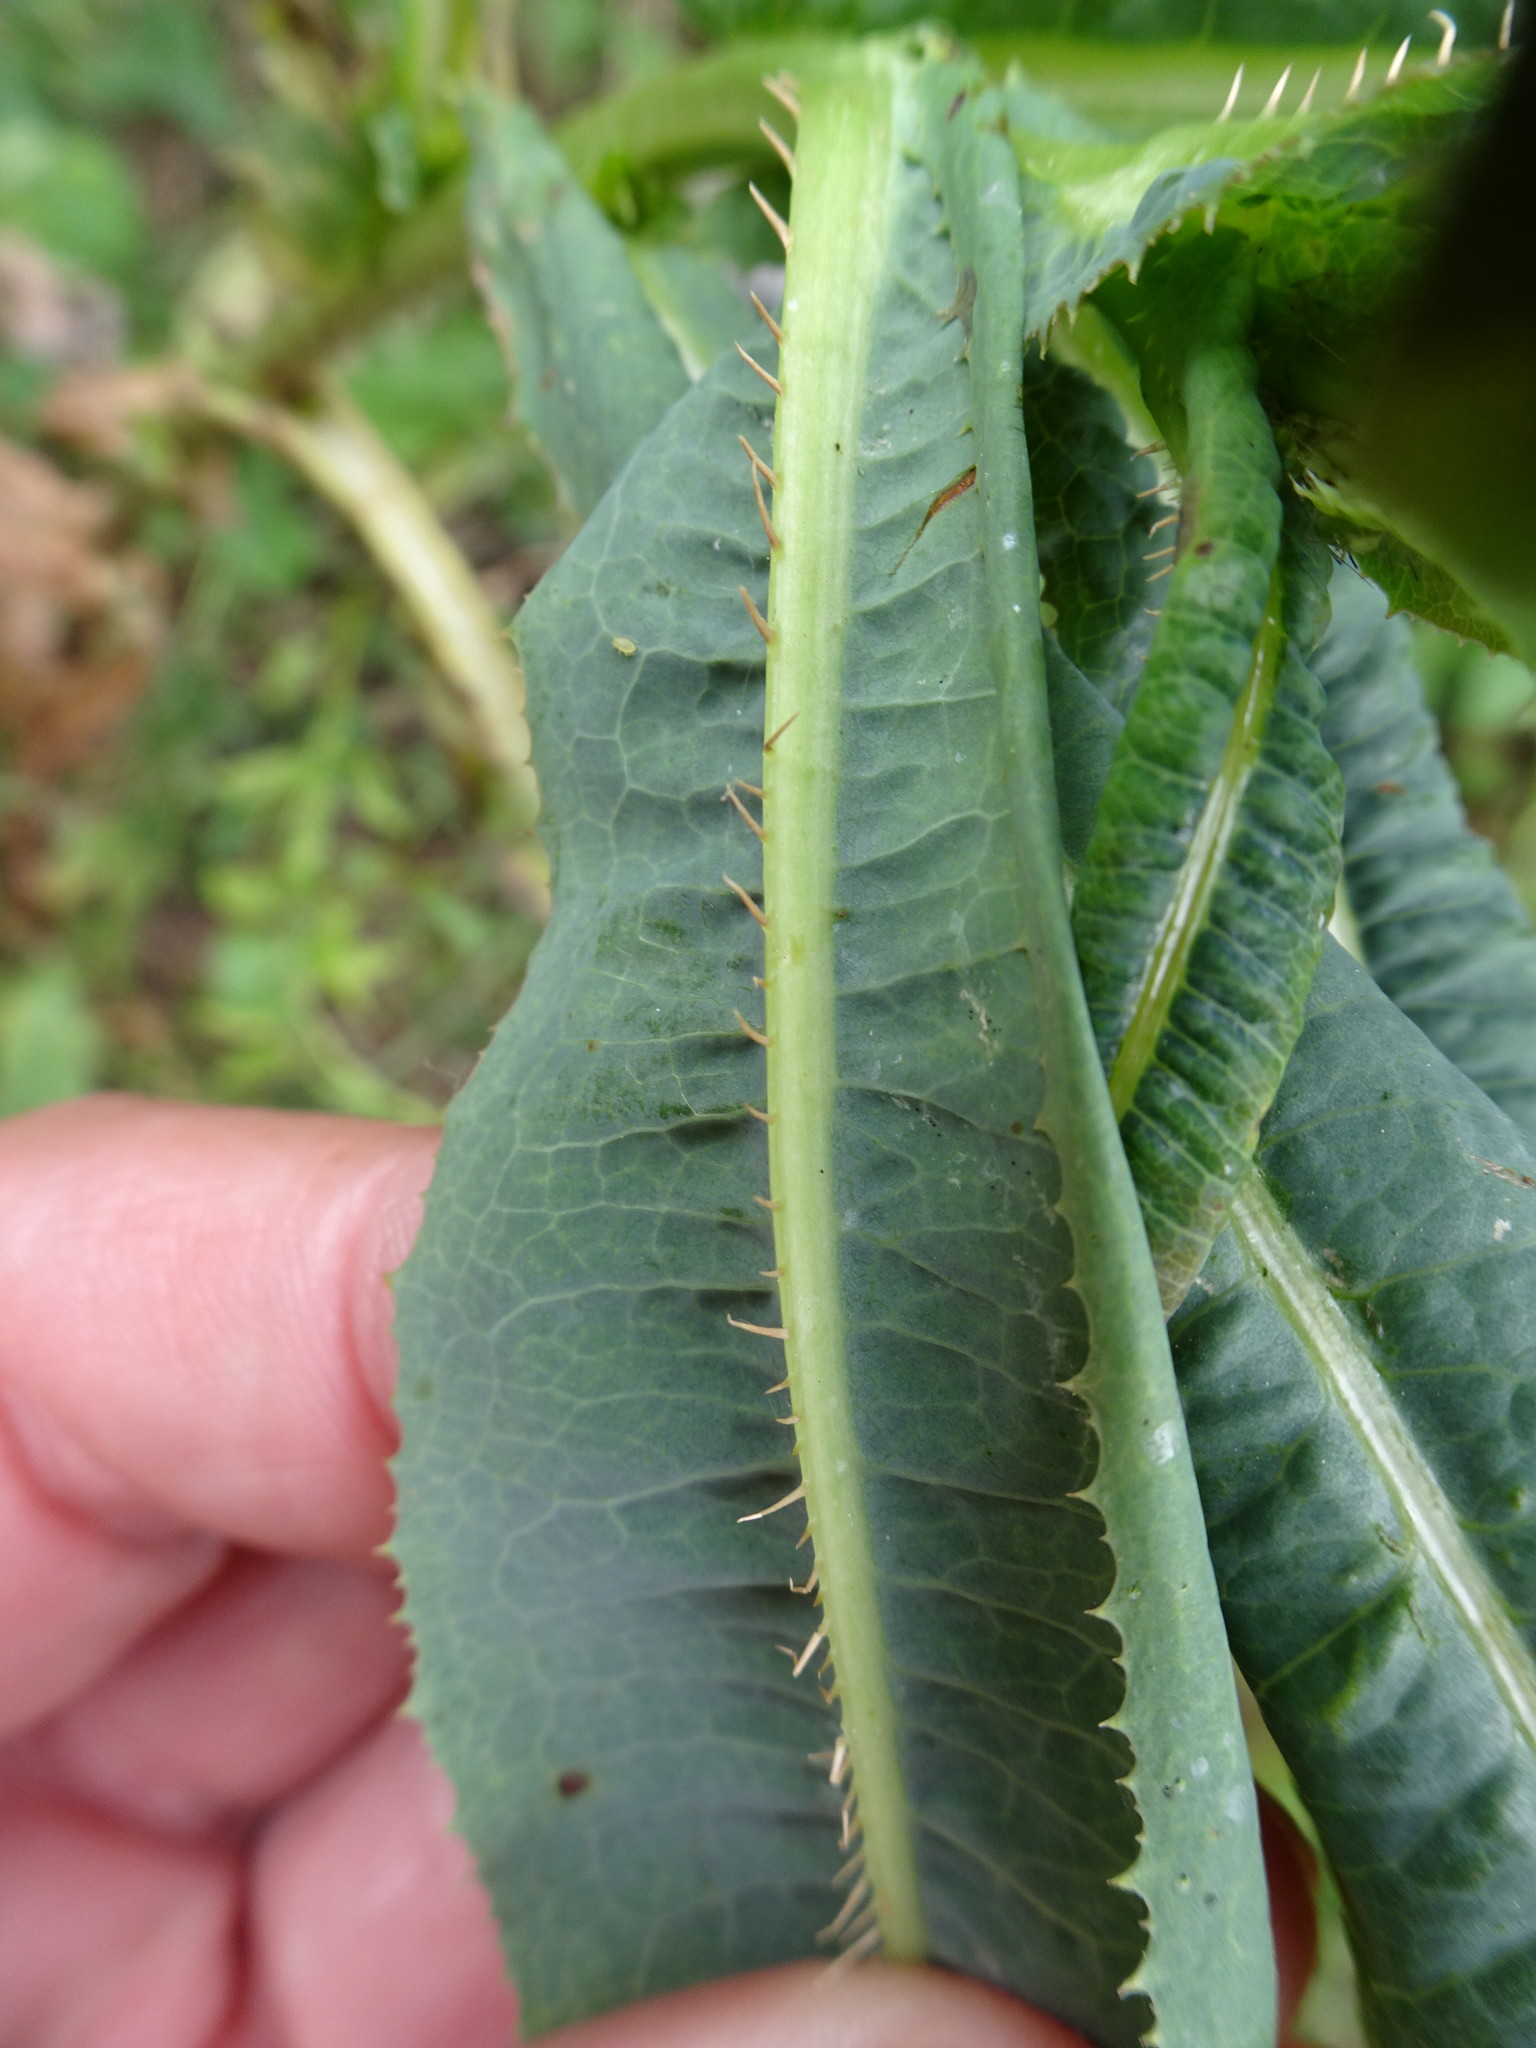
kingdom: Plantae
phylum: Tracheophyta
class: Magnoliopsida
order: Asterales
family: Asteraceae
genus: Lactuca
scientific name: Lactuca serriola
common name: Prickly lettuce
